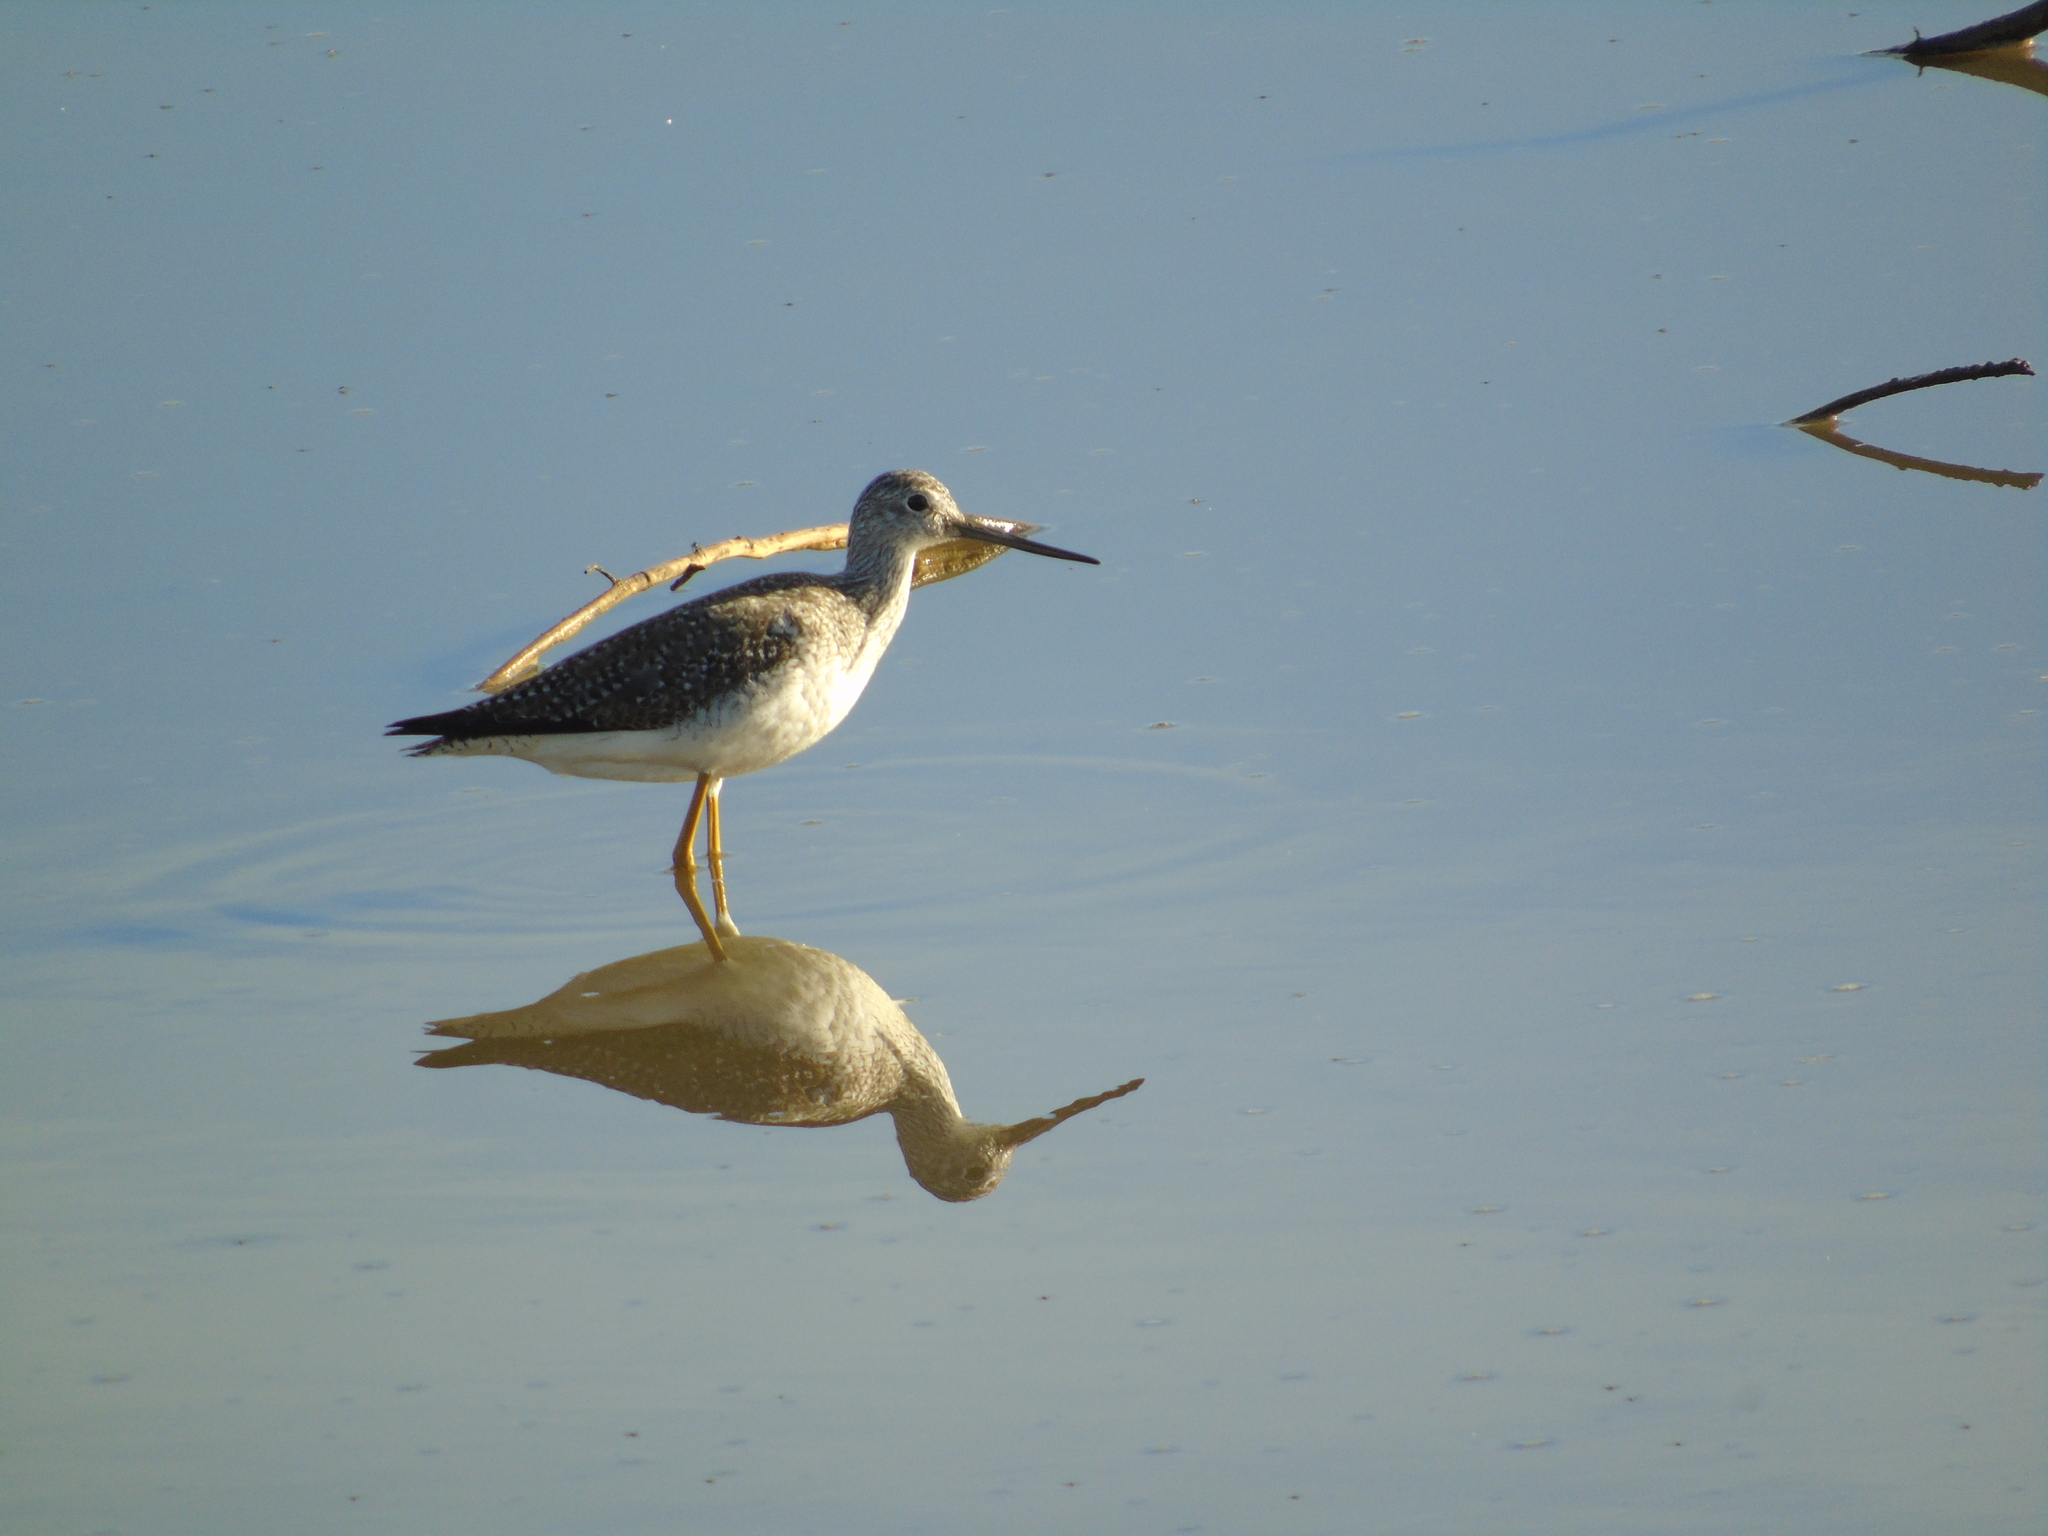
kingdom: Animalia
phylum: Chordata
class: Aves
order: Charadriiformes
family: Scolopacidae
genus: Tringa
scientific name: Tringa melanoleuca
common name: Greater yellowlegs
